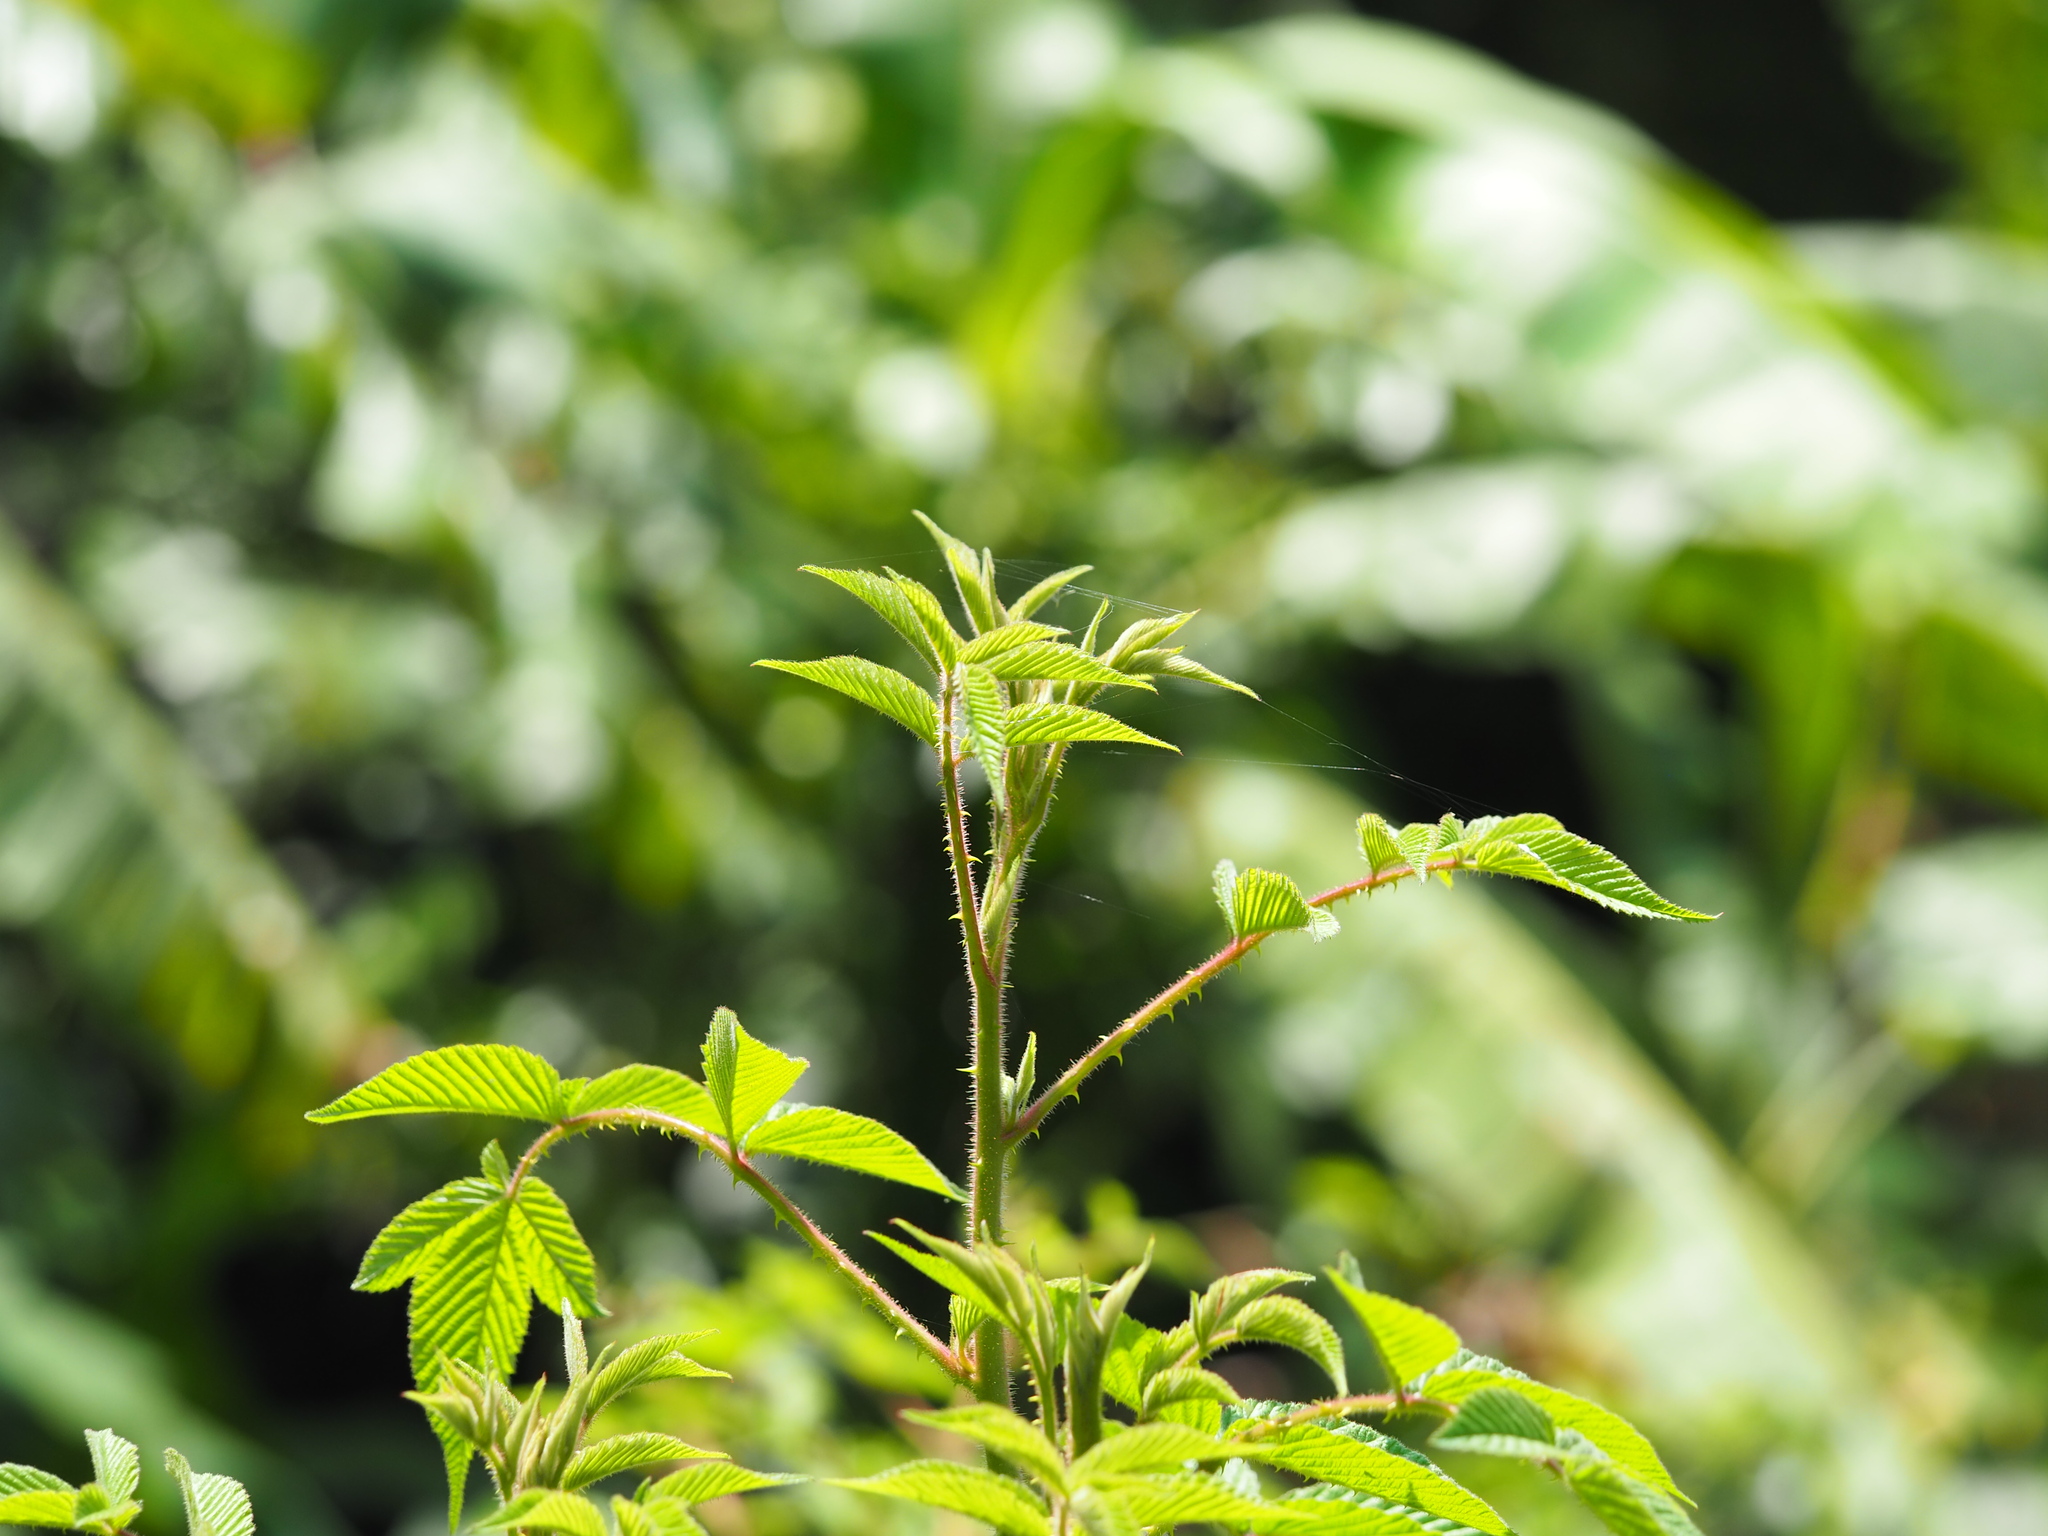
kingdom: Plantae
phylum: Tracheophyta
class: Magnoliopsida
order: Rosales
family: Rosaceae
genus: Rubus
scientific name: Rubus croceacanthus
